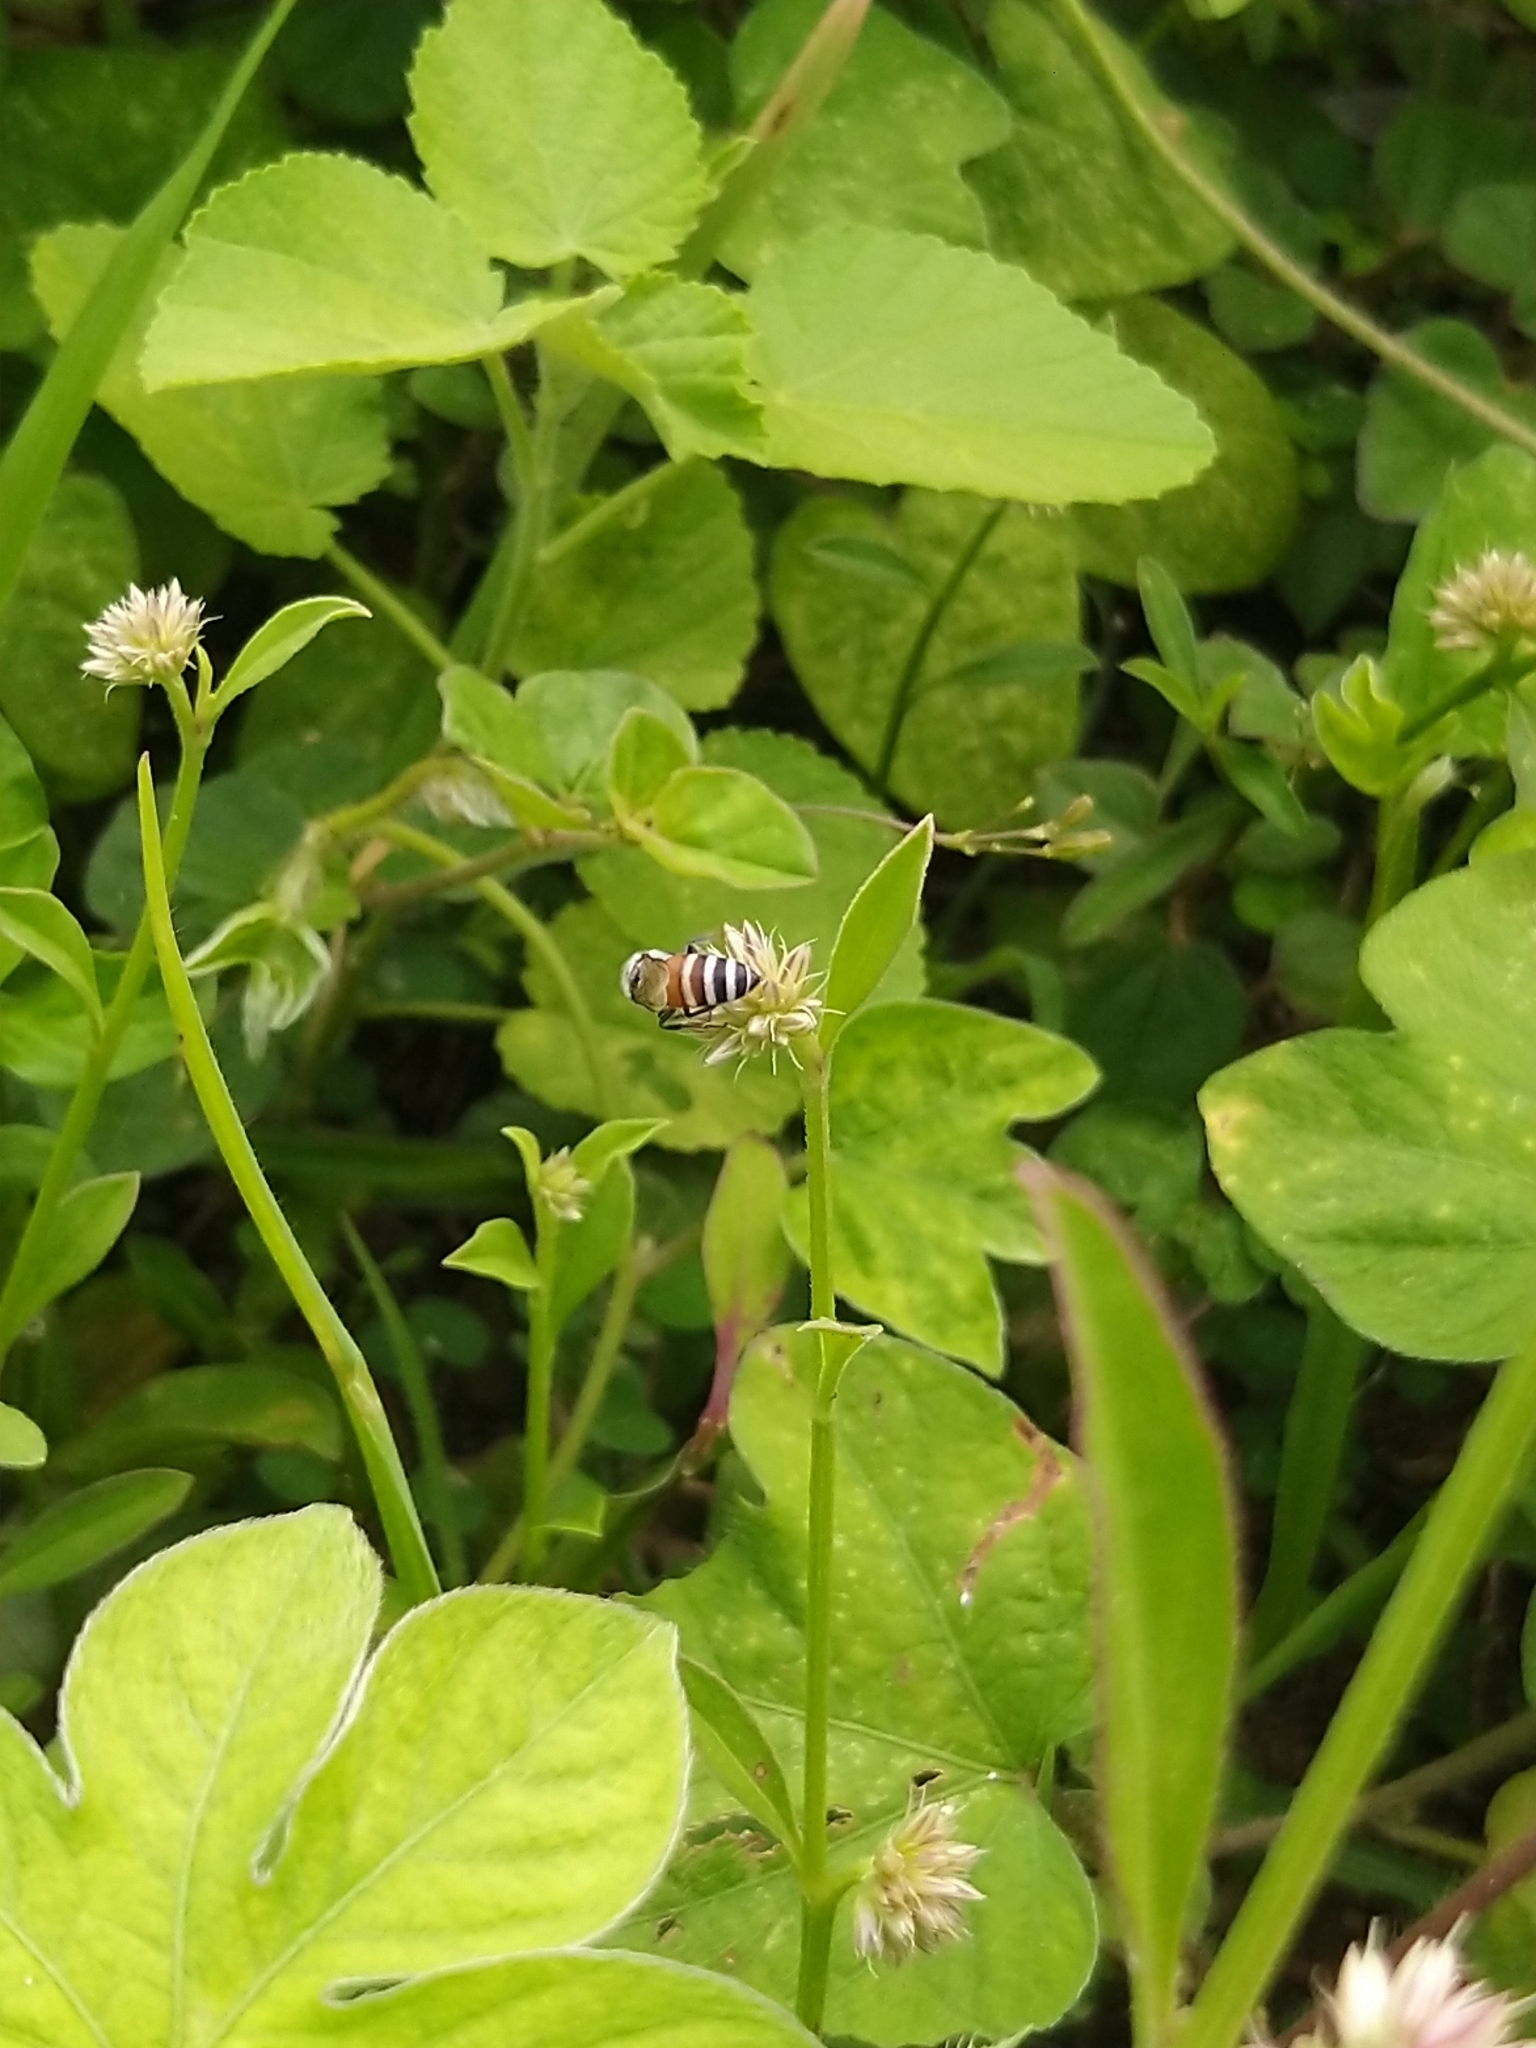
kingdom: Animalia
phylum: Arthropoda
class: Insecta
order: Hymenoptera
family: Apidae
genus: Apis
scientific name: Apis florea
